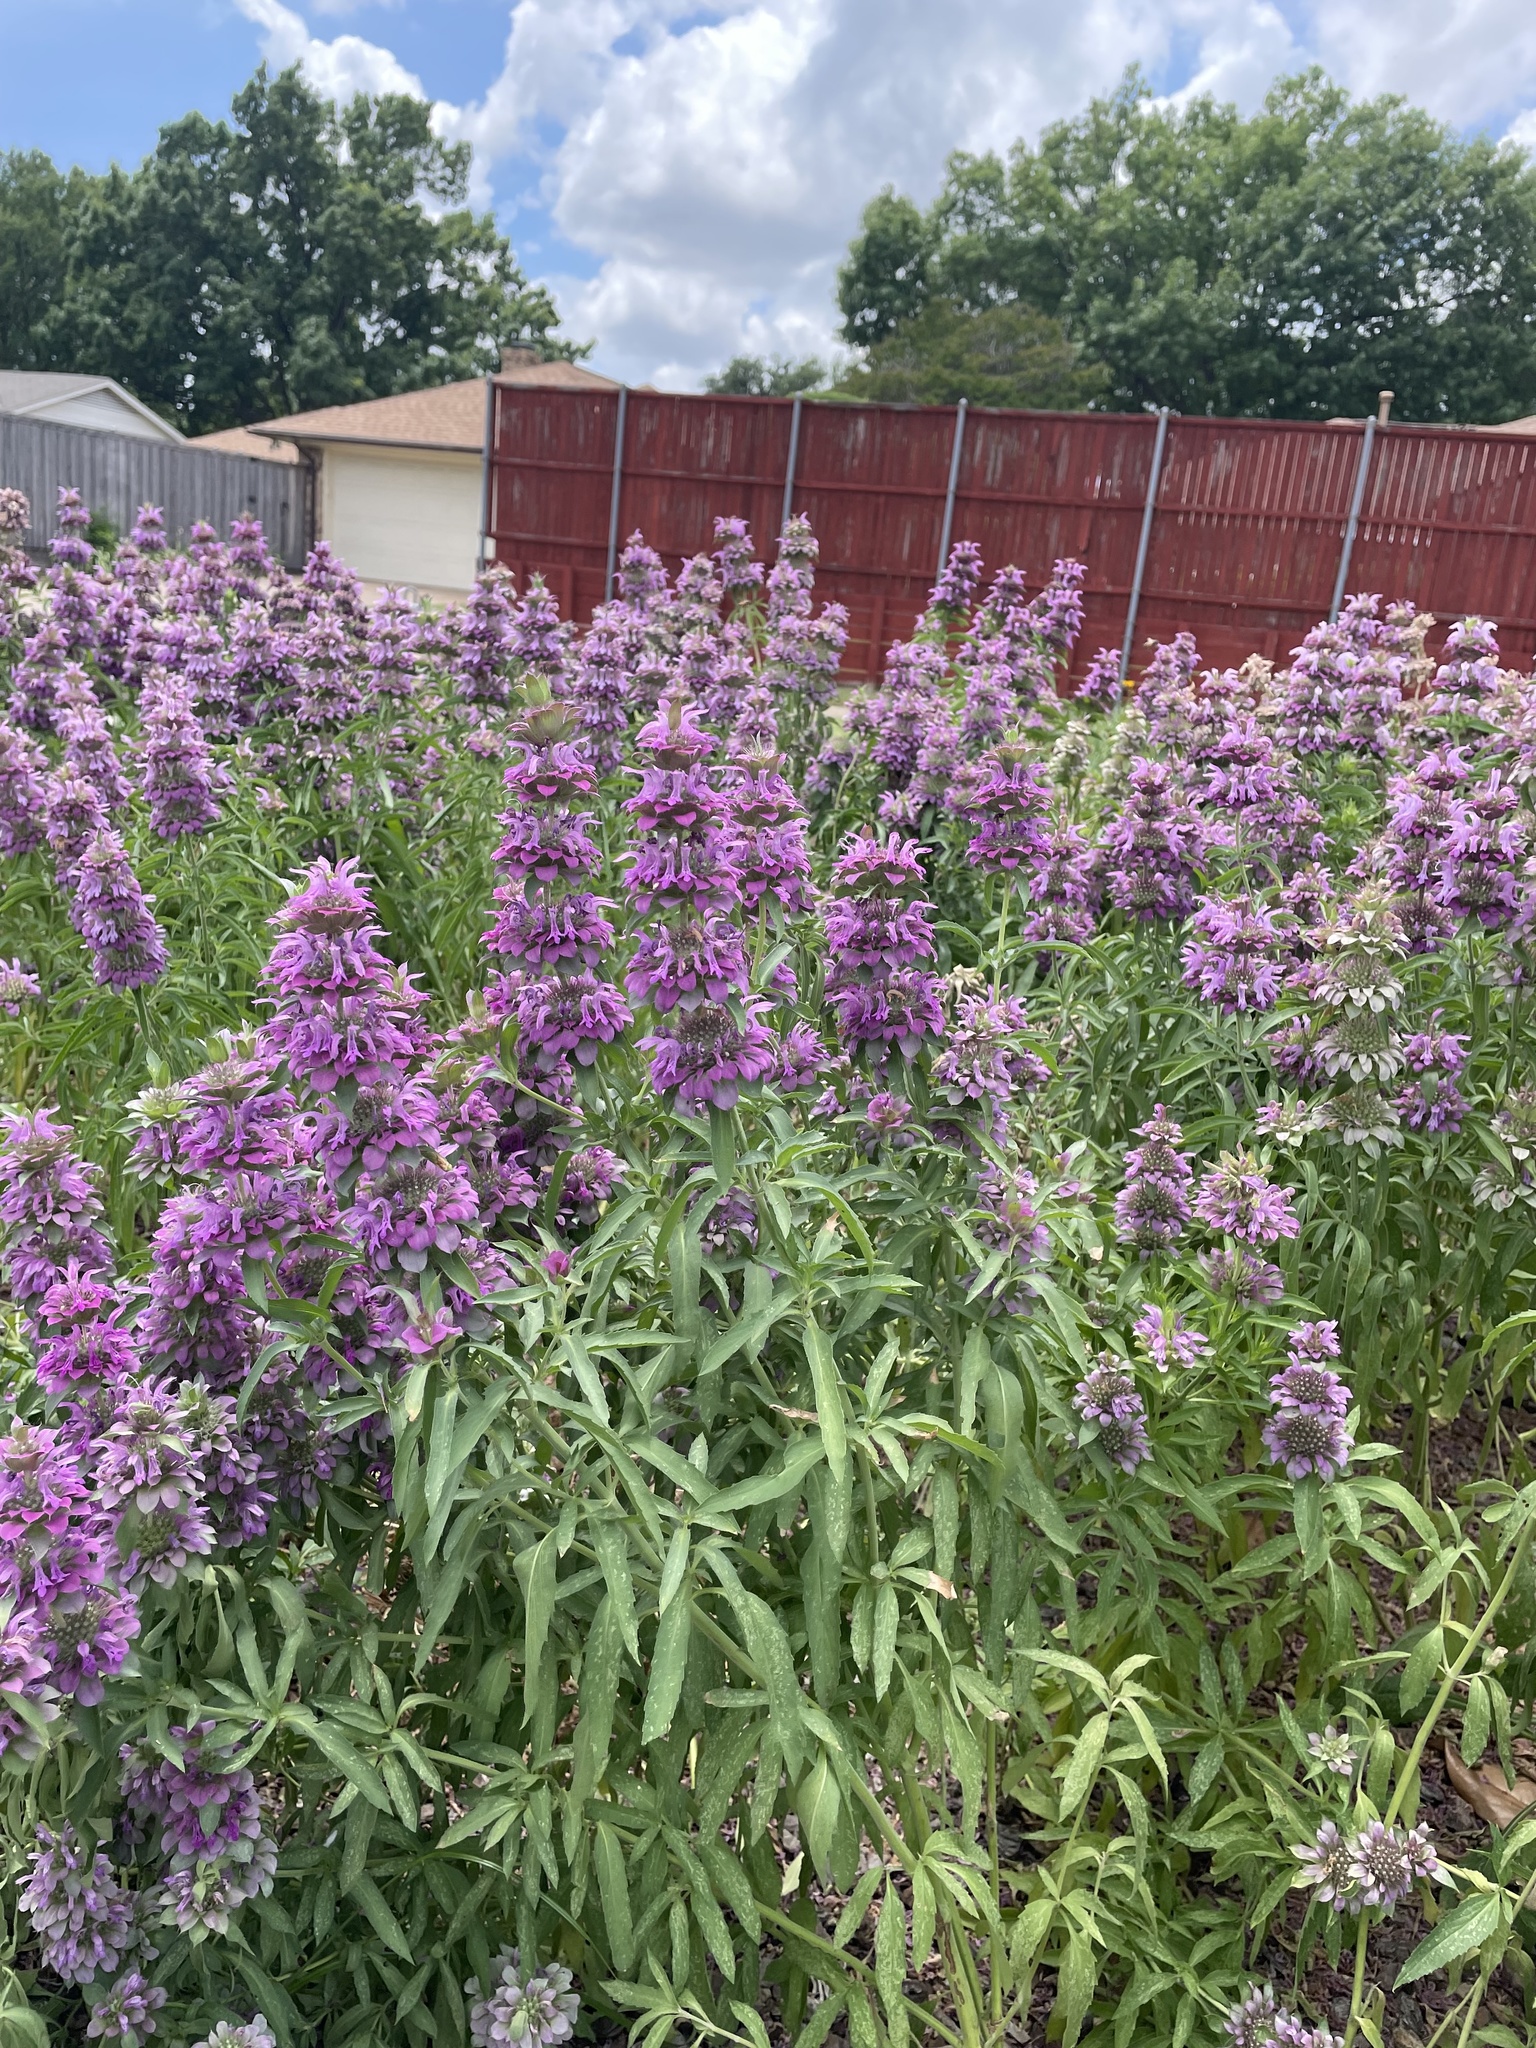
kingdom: Plantae
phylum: Tracheophyta
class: Magnoliopsida
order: Lamiales
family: Lamiaceae
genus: Monarda
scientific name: Monarda citriodora
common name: Lemon beebalm
